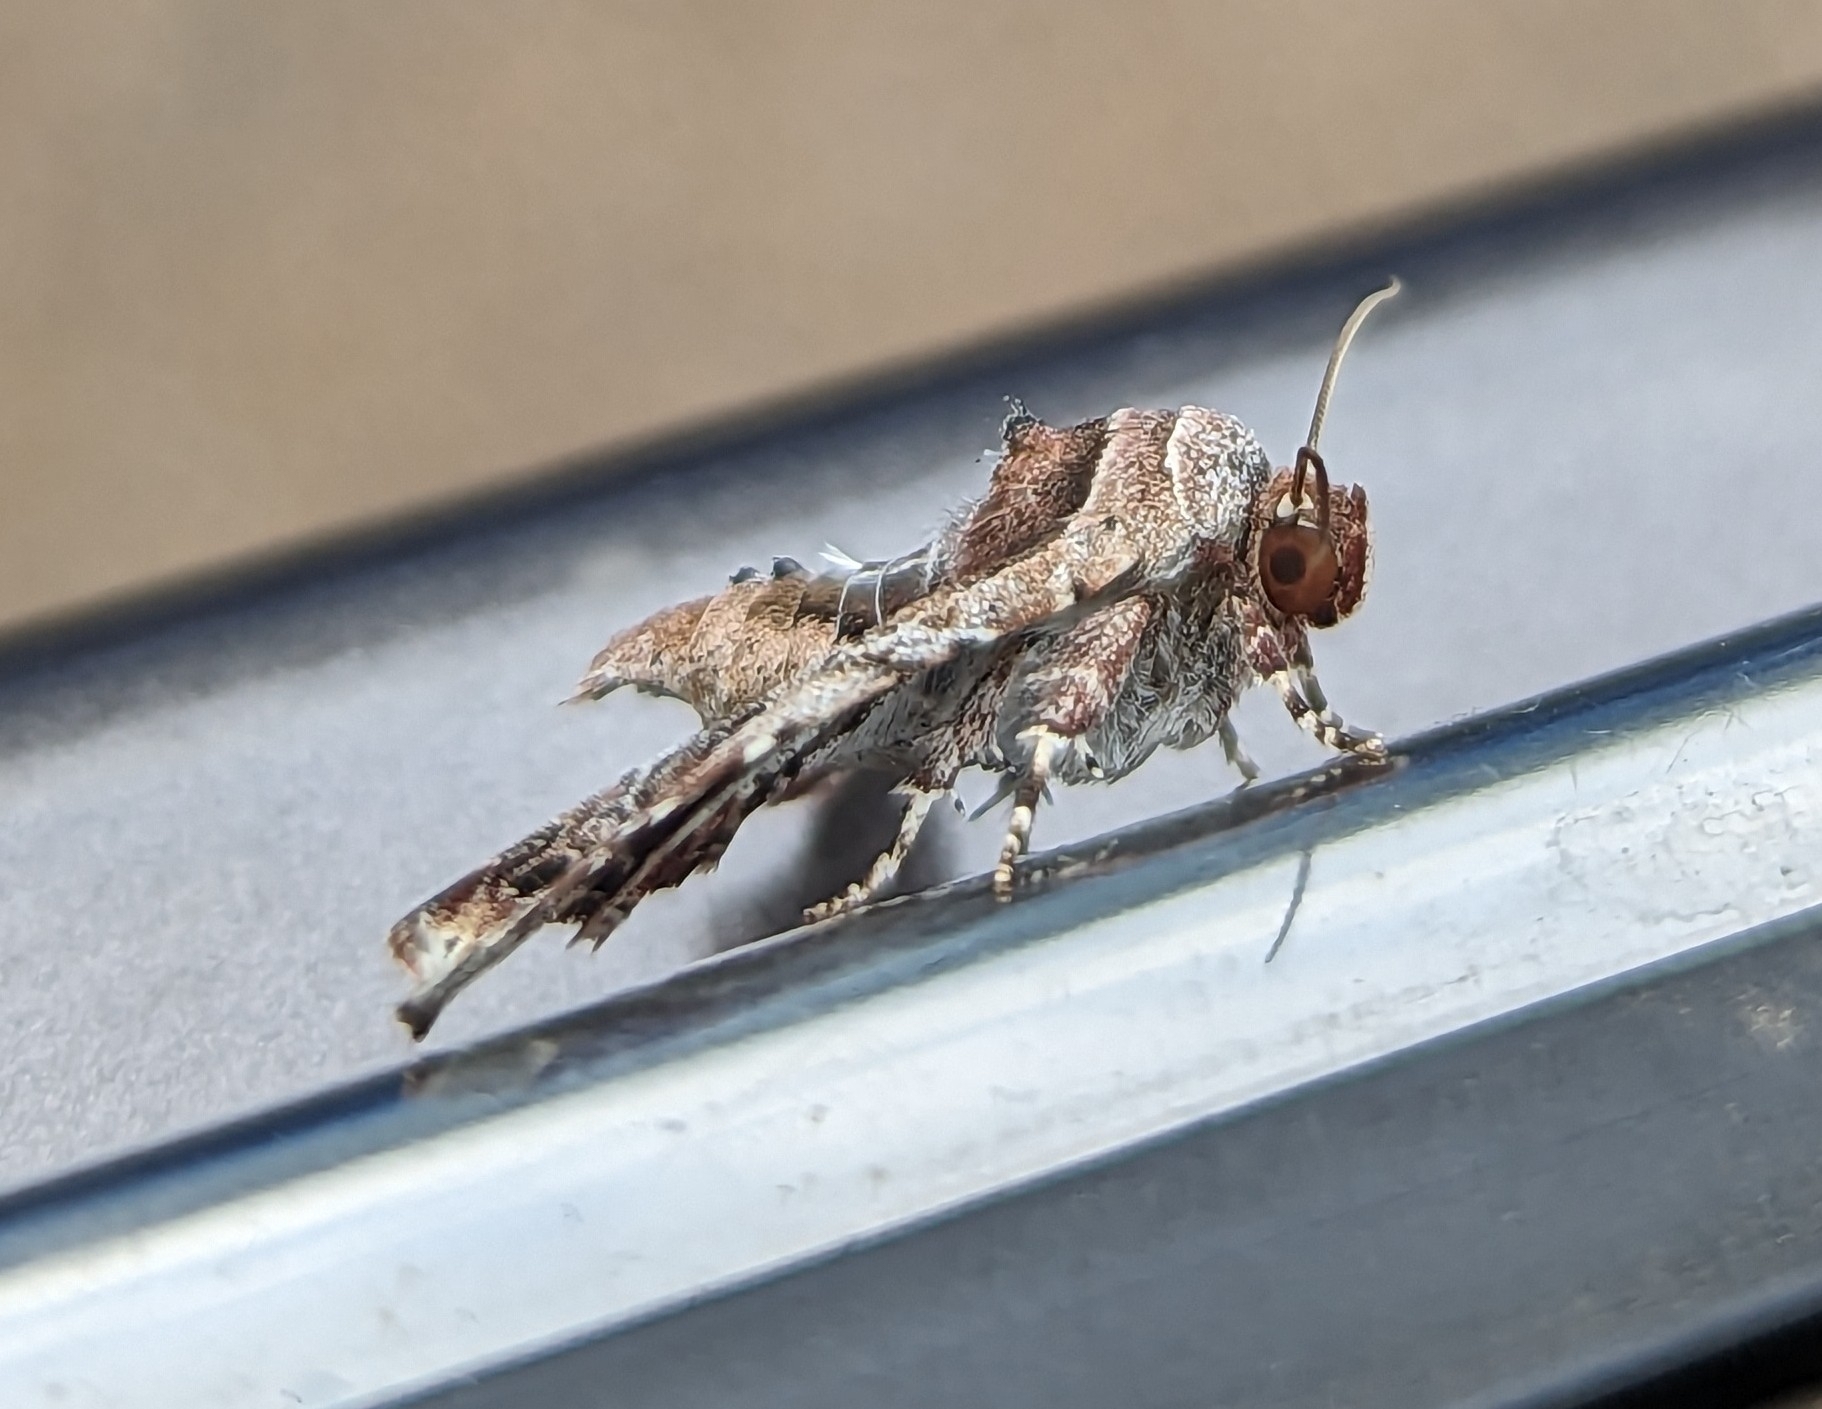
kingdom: Animalia
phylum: Arthropoda
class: Insecta
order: Lepidoptera
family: Euteliidae
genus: Eutelia
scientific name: Eutelia furcata
